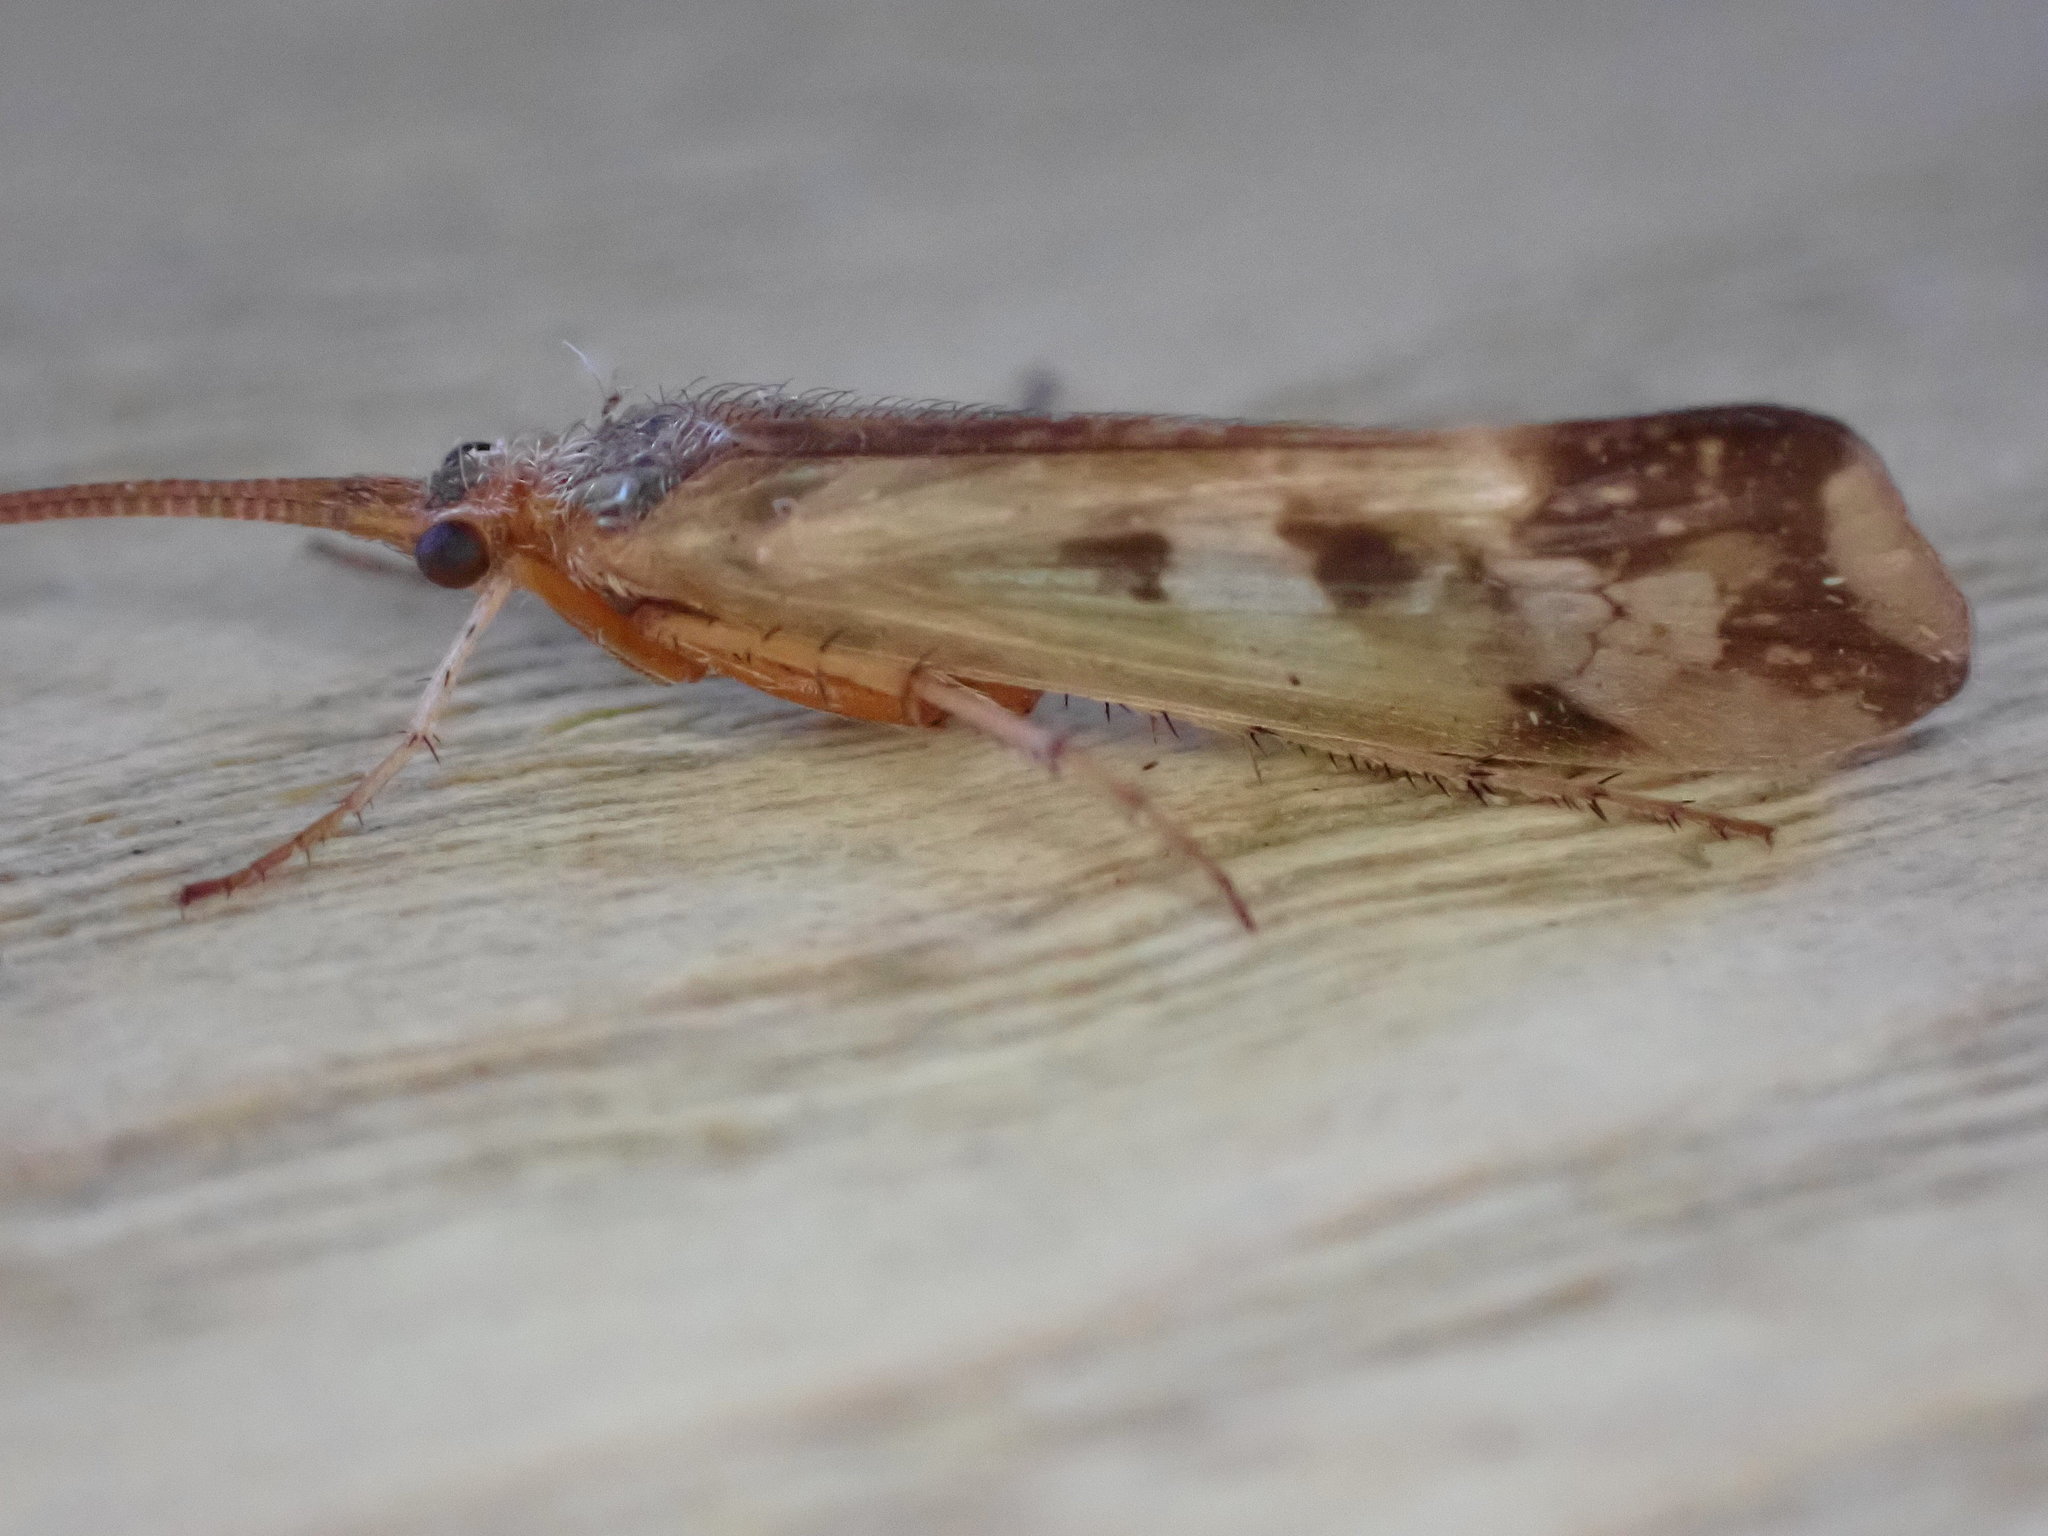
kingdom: Animalia
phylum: Arthropoda
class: Insecta
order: Trichoptera
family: Limnephilidae
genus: Limnephilus
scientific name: Limnephilus lunatus
